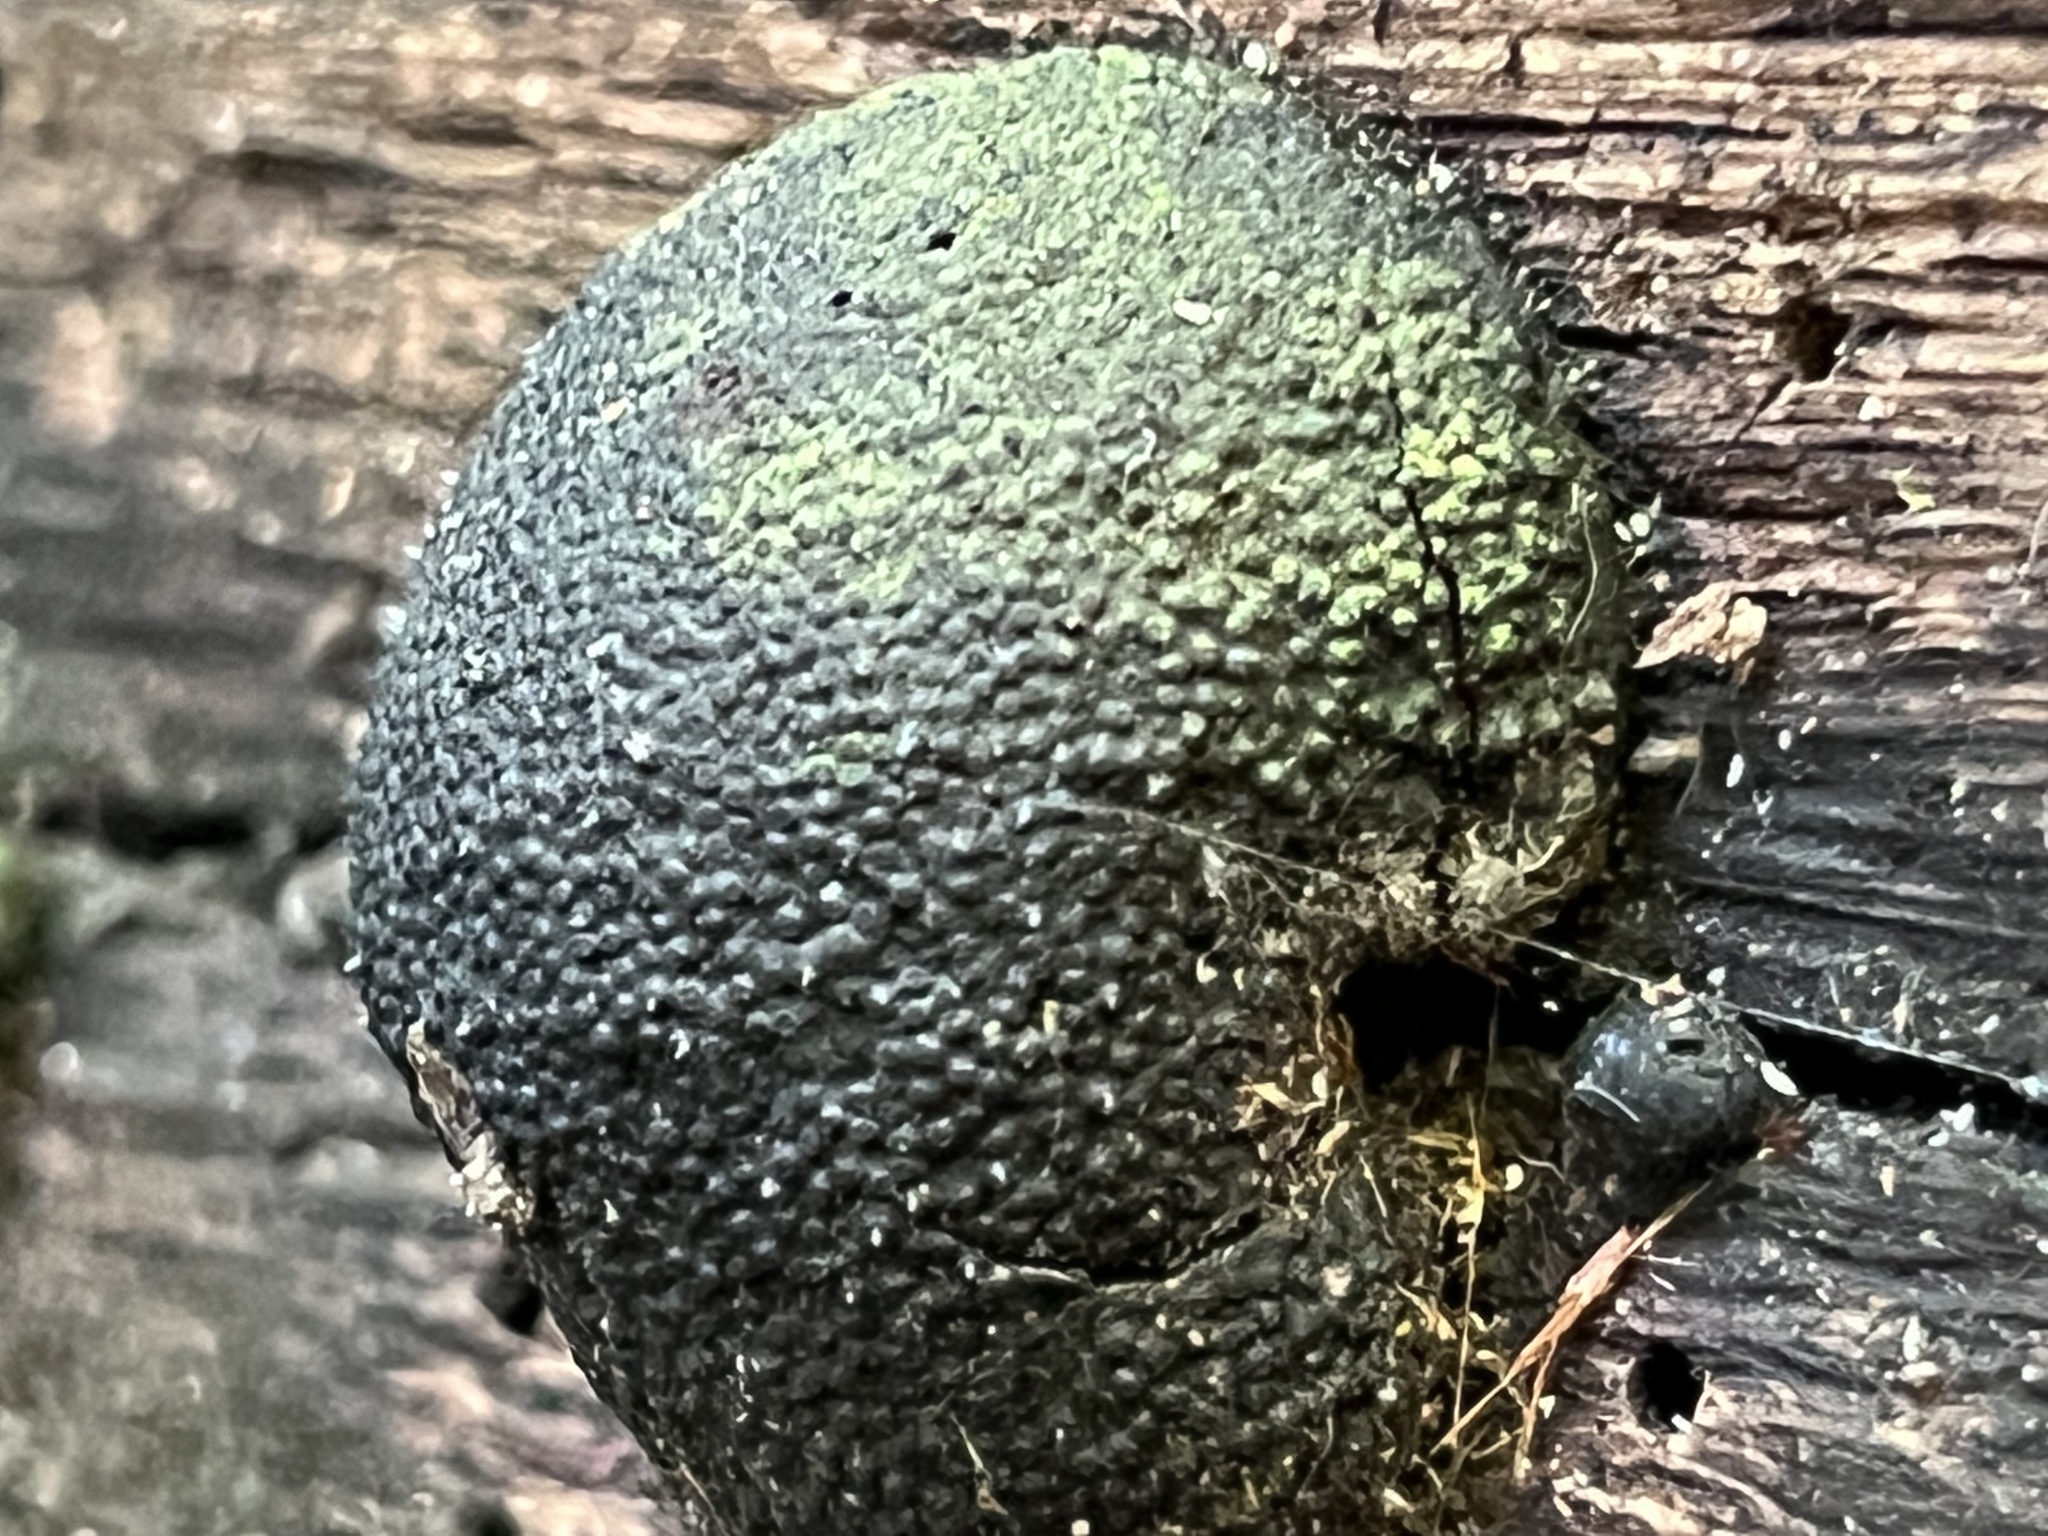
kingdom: Fungi
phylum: Ascomycota
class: Sordariomycetes
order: Xylariales
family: Hypoxylaceae
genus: Annulohypoxylon
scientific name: Annulohypoxylon thouarsianum
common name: Cramp balls
